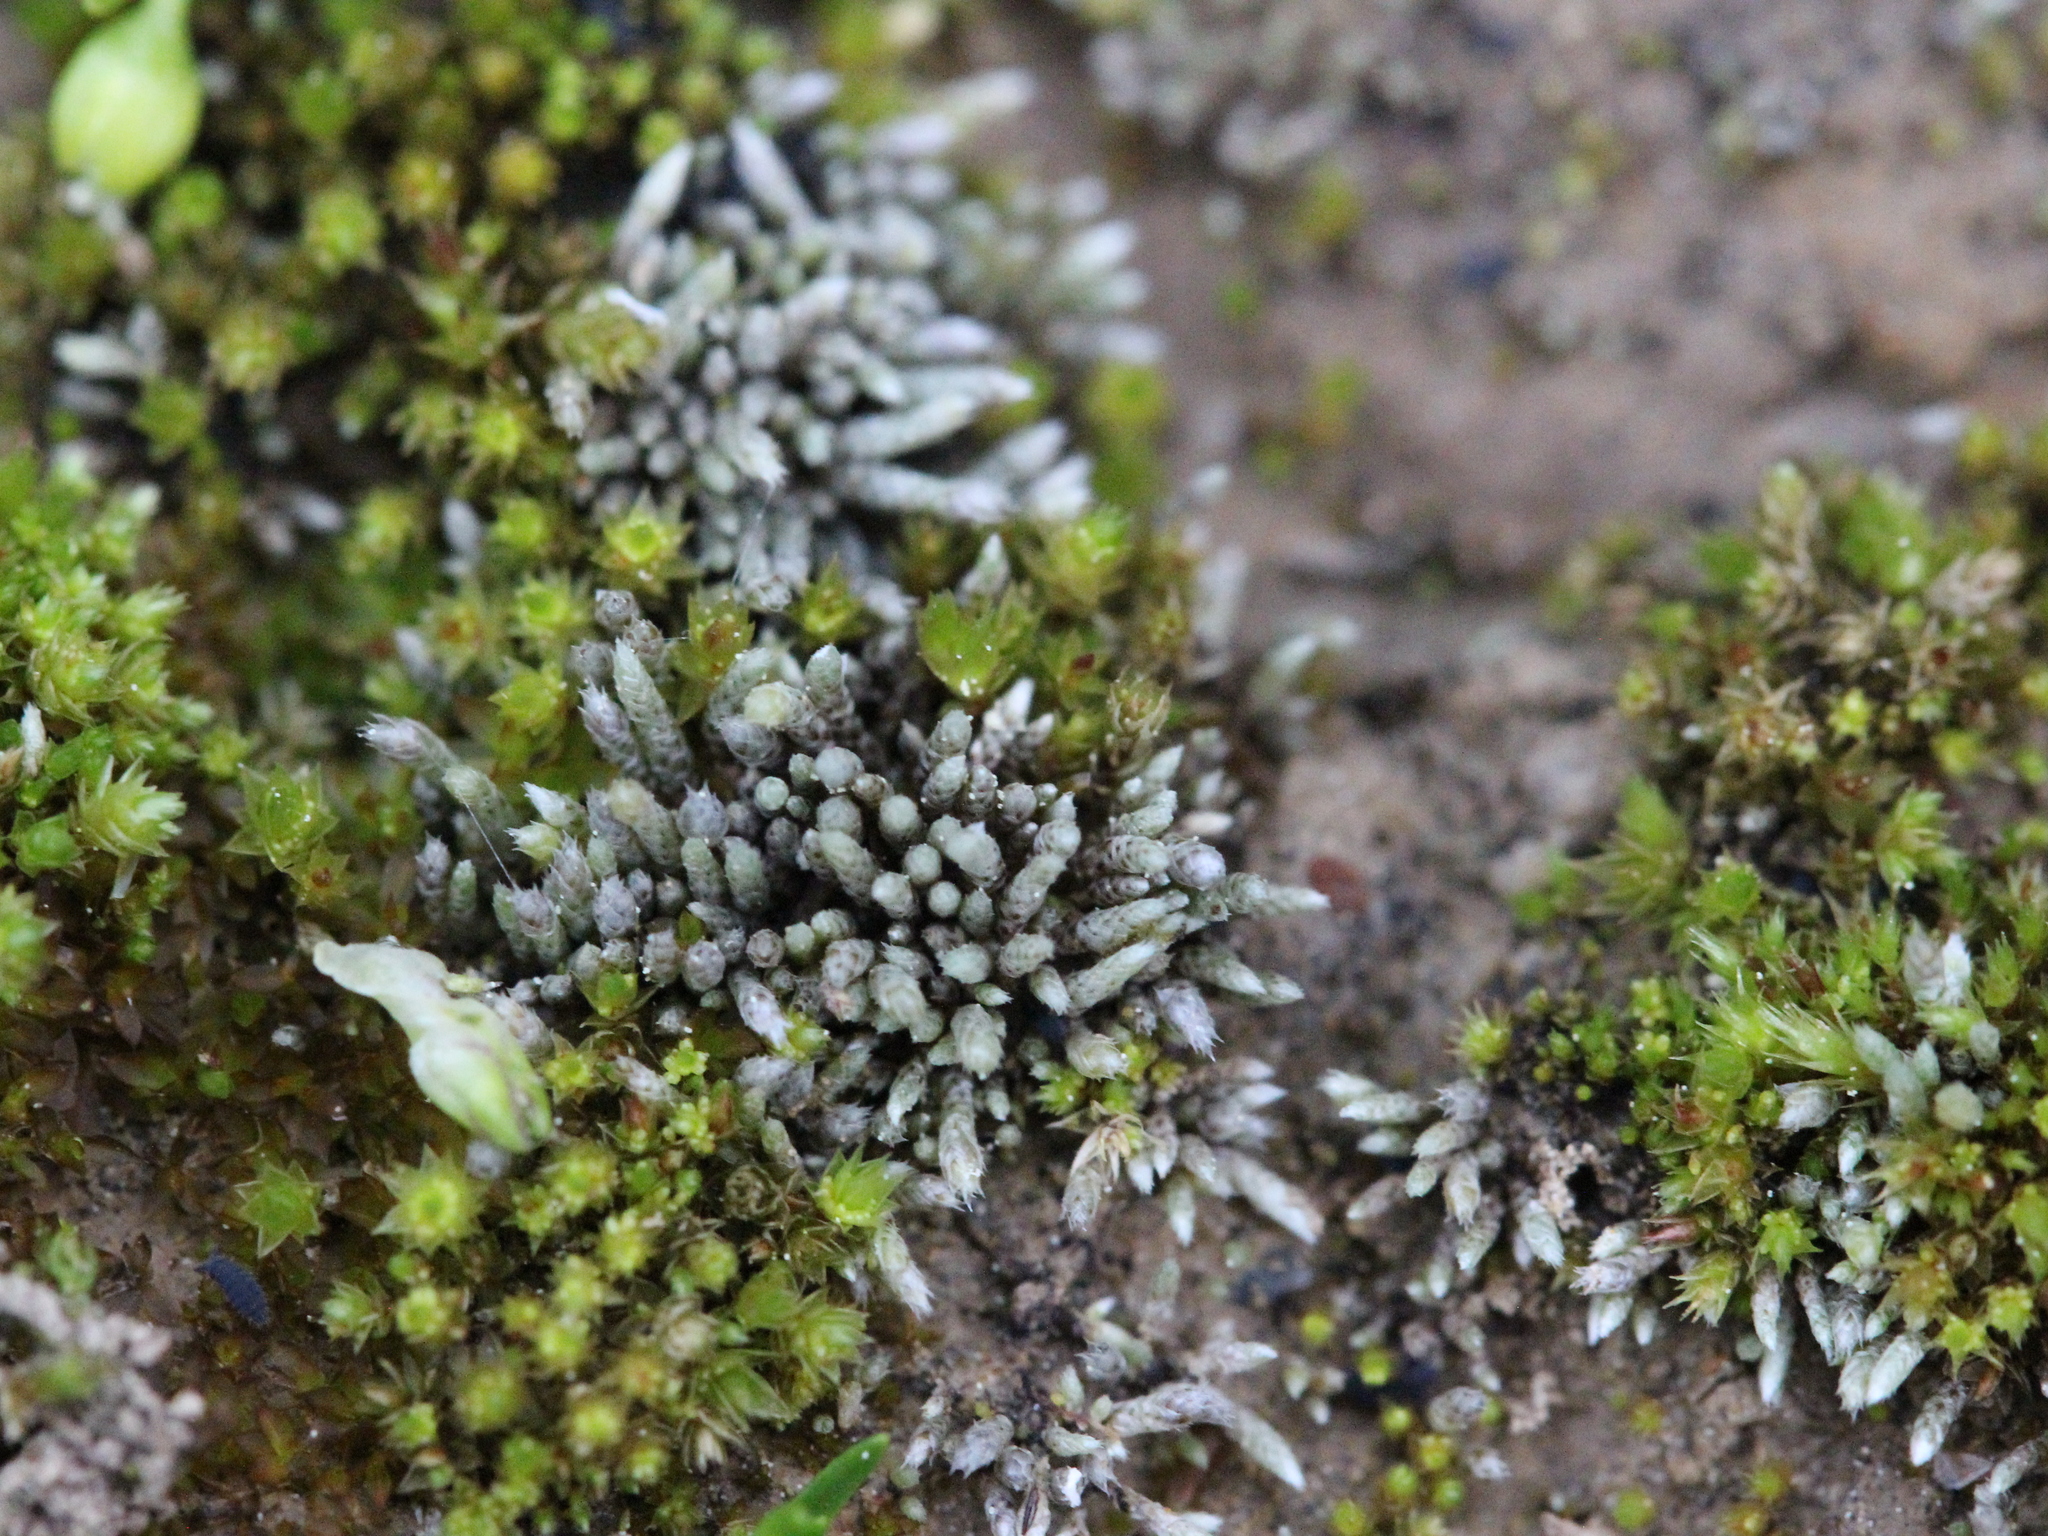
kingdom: Plantae
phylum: Bryophyta
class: Bryopsida
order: Bryales
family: Bryaceae
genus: Bryum
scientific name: Bryum argenteum
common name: Silver-moss
